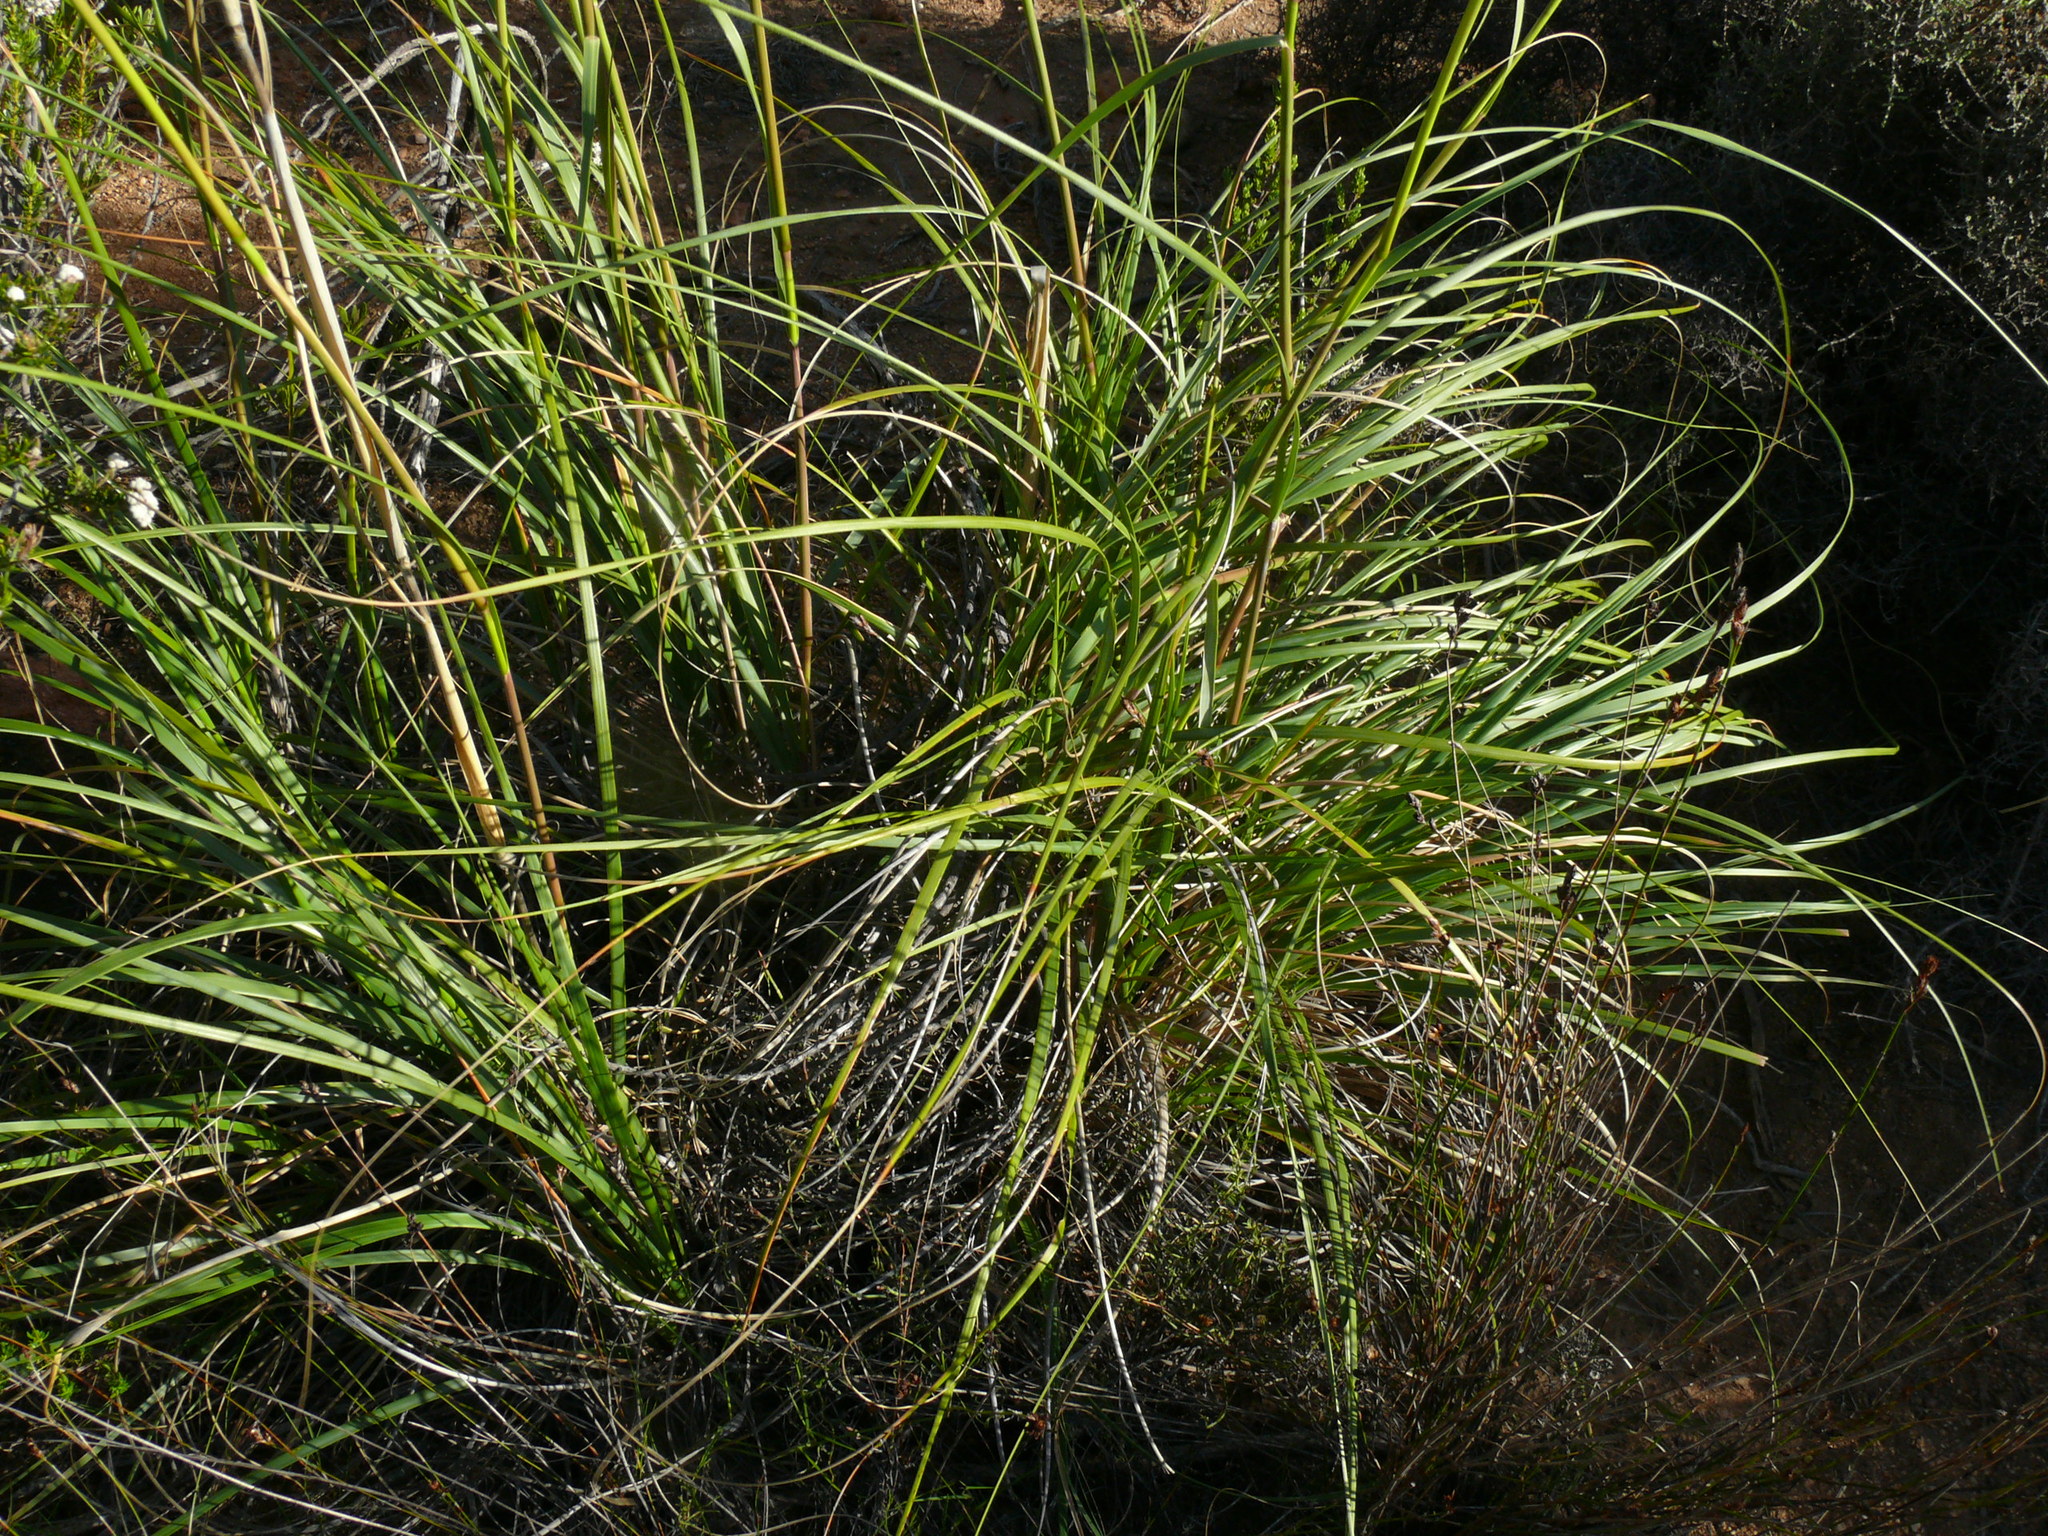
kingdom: Plantae
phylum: Tracheophyta
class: Liliopsida
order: Poales
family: Poaceae
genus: Capeochloa
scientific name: Capeochloa arundinacea
